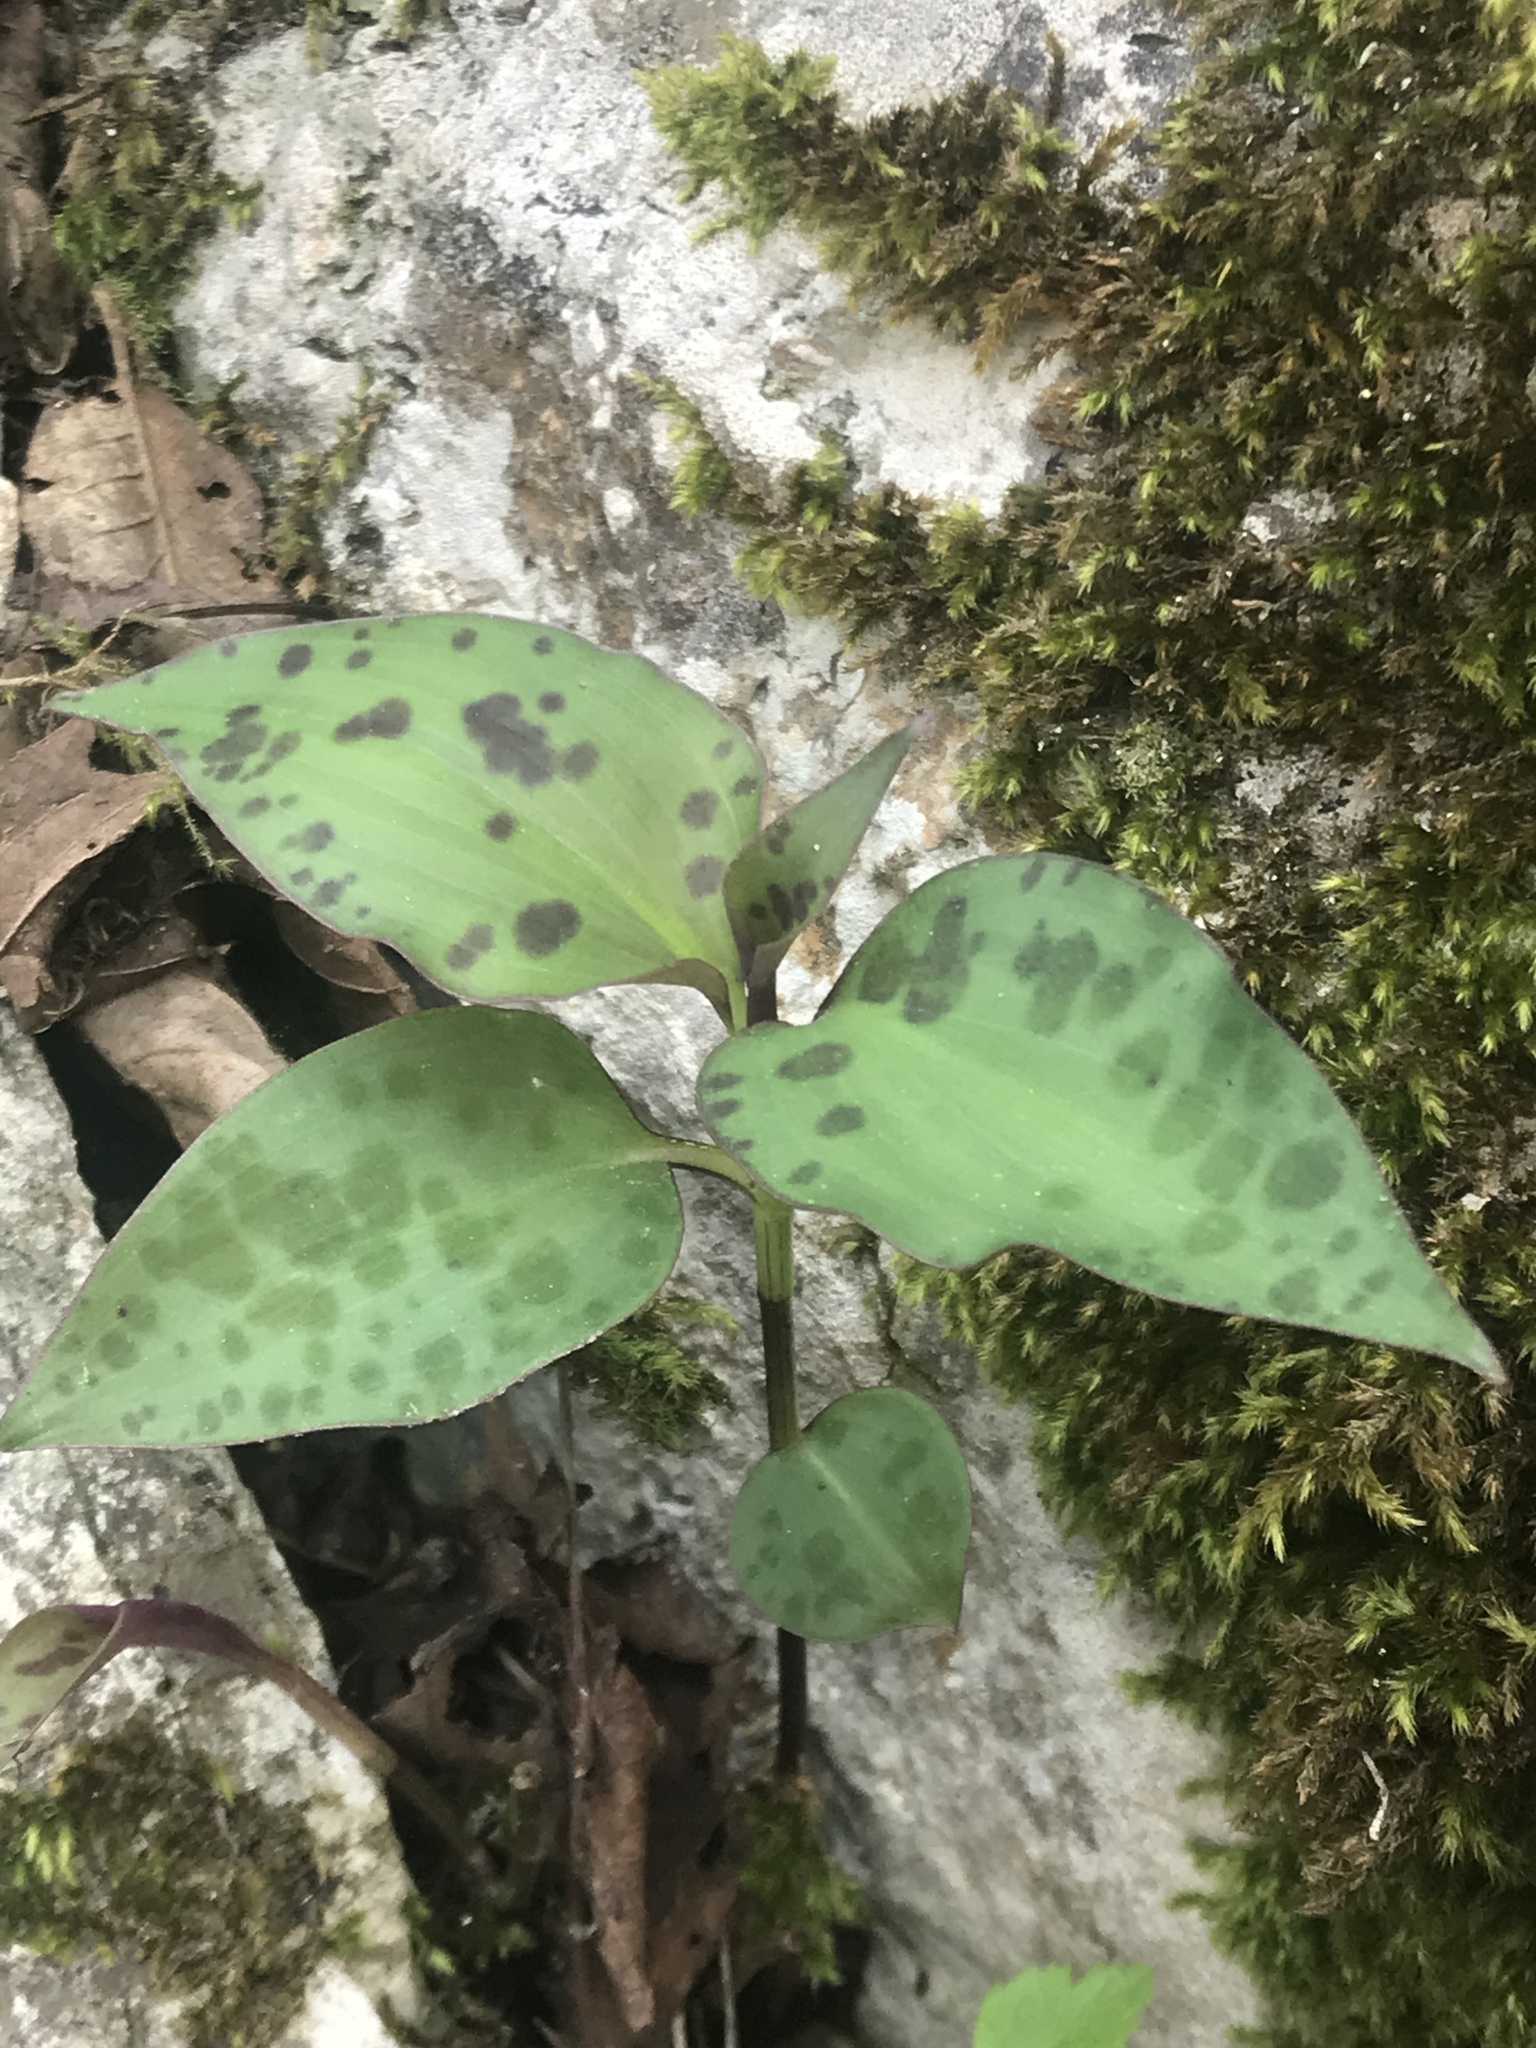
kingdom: Plantae
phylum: Tracheophyta
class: Liliopsida
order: Commelinales
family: Commelinaceae
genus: Tinantia
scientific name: Tinantia pringlei
